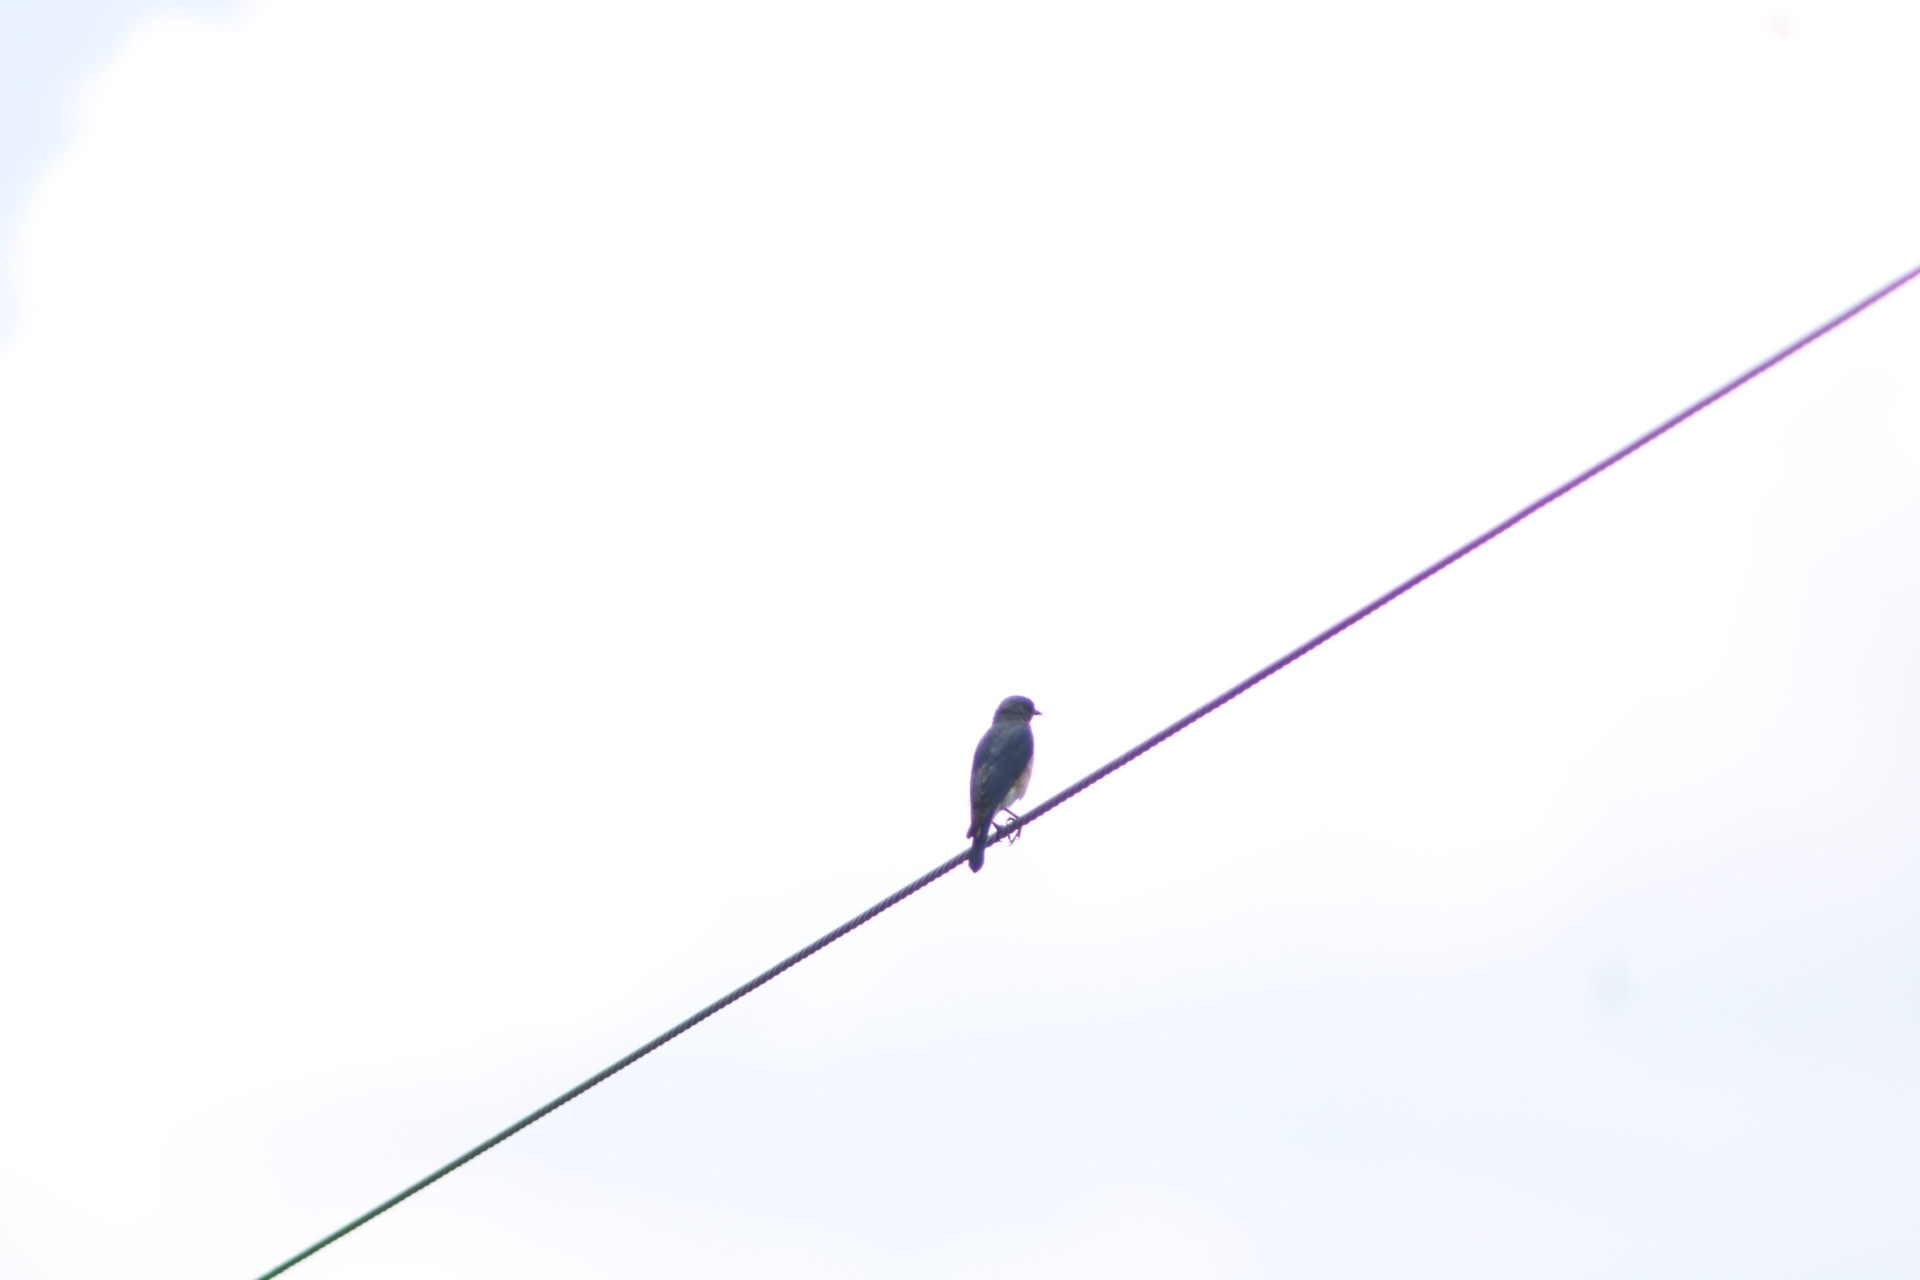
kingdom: Animalia
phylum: Chordata
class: Aves
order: Passeriformes
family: Turdidae
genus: Sialia
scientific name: Sialia sialis
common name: Eastern bluebird
